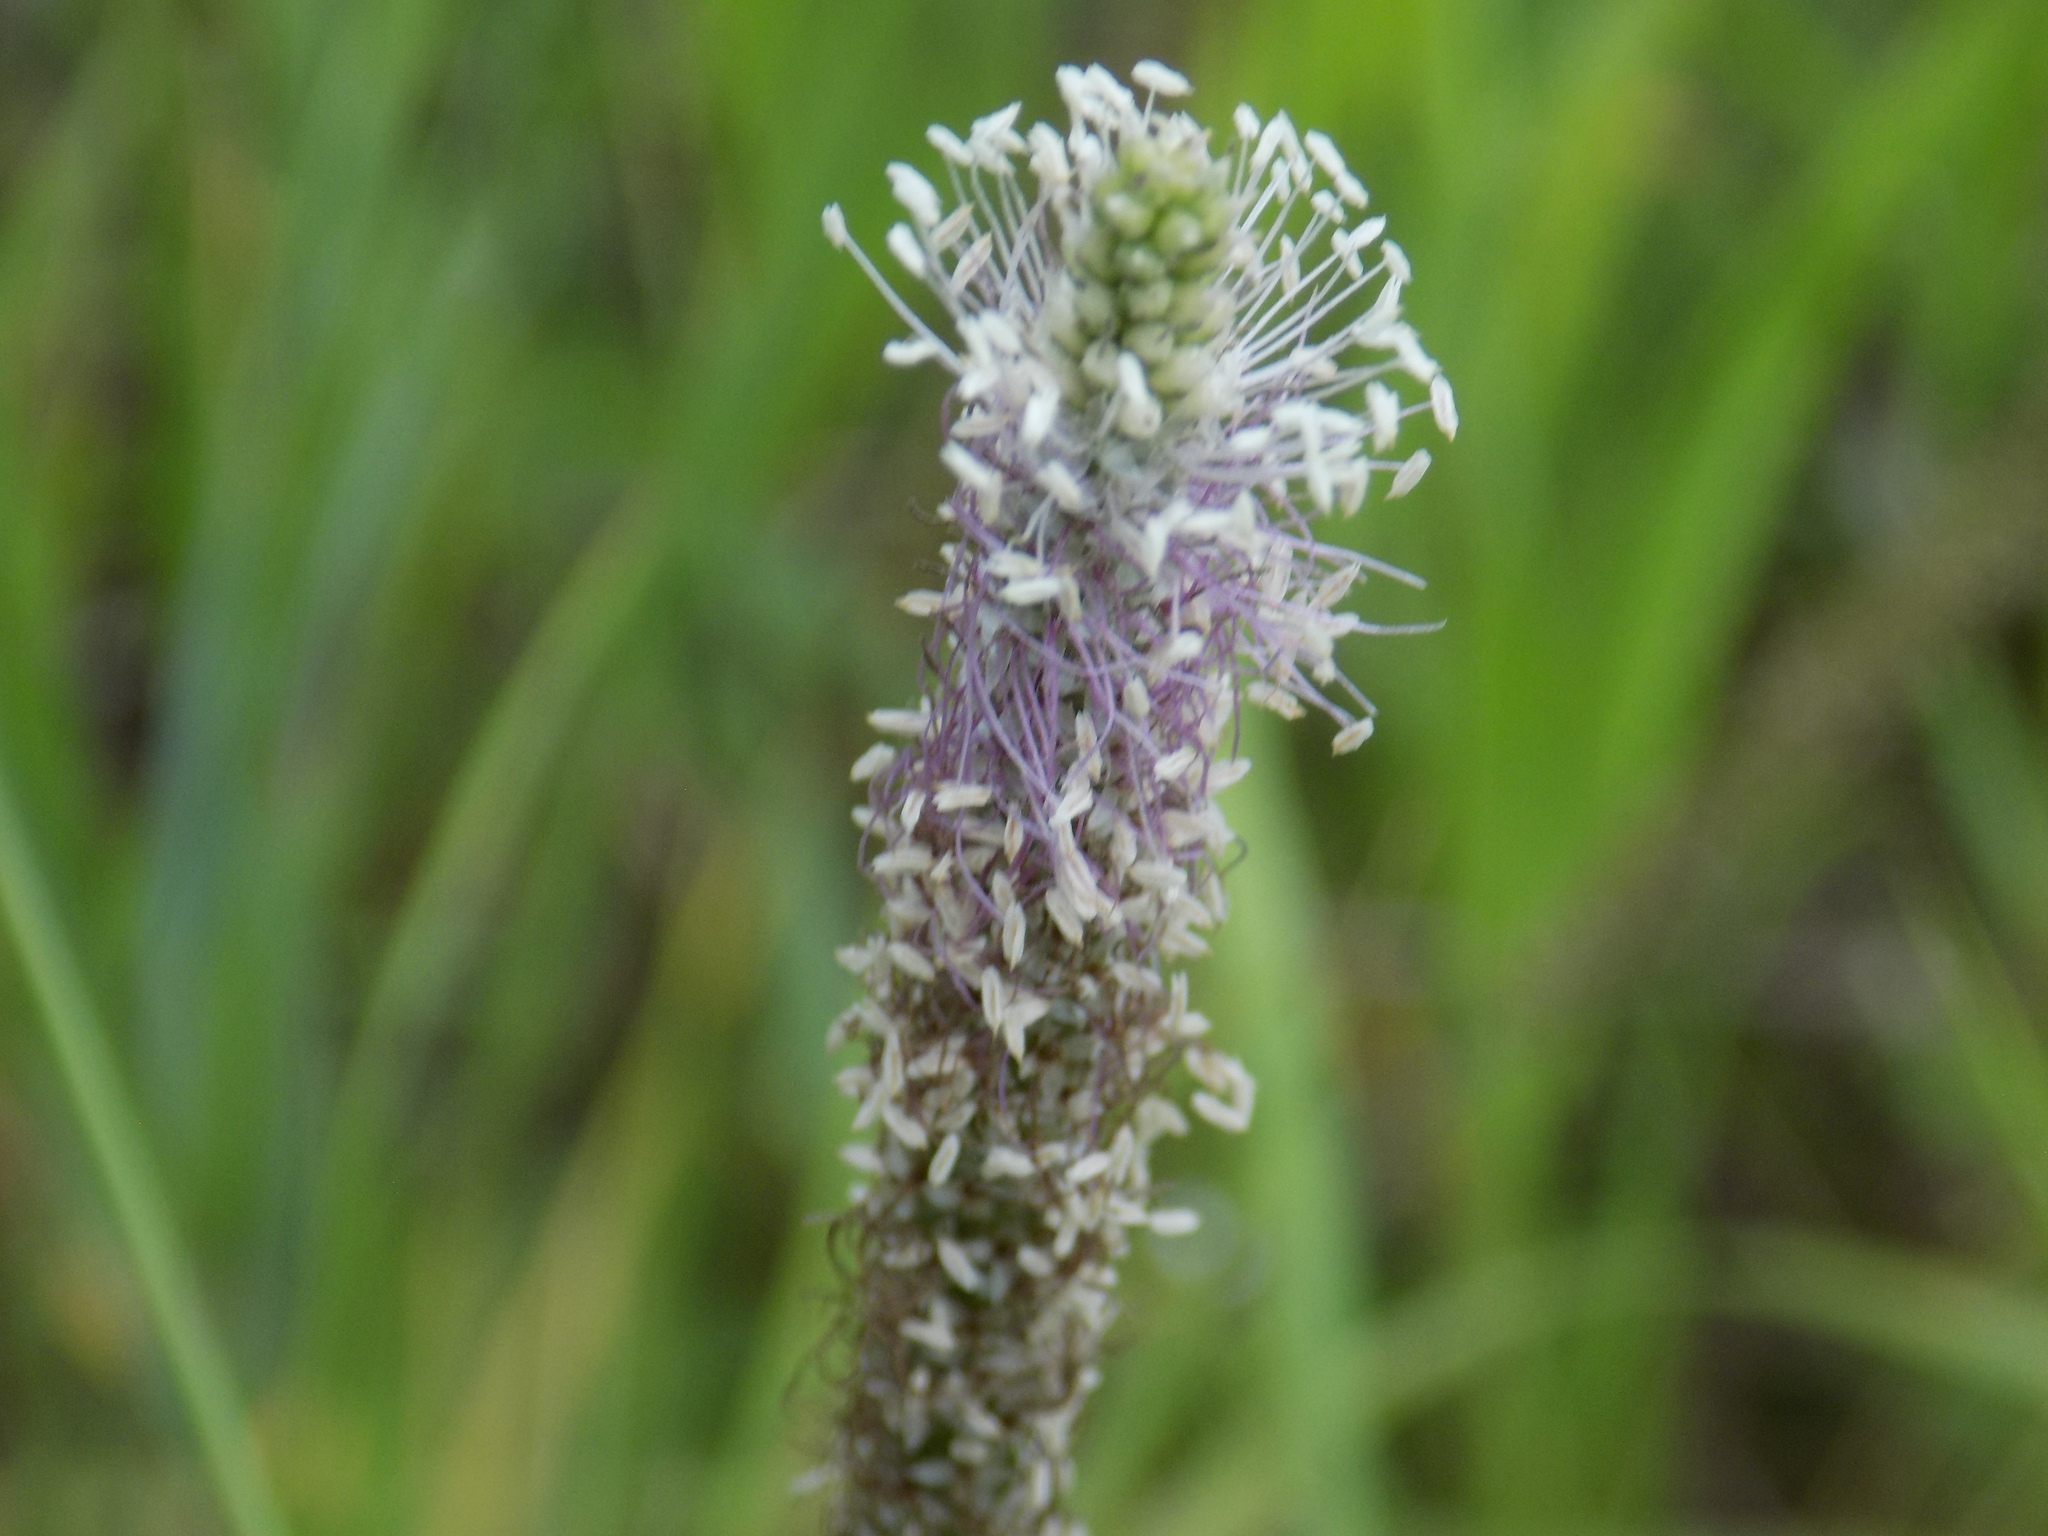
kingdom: Plantae
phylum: Tracheophyta
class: Magnoliopsida
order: Lamiales
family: Plantaginaceae
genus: Plantago
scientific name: Plantago media
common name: Hoary plantain
